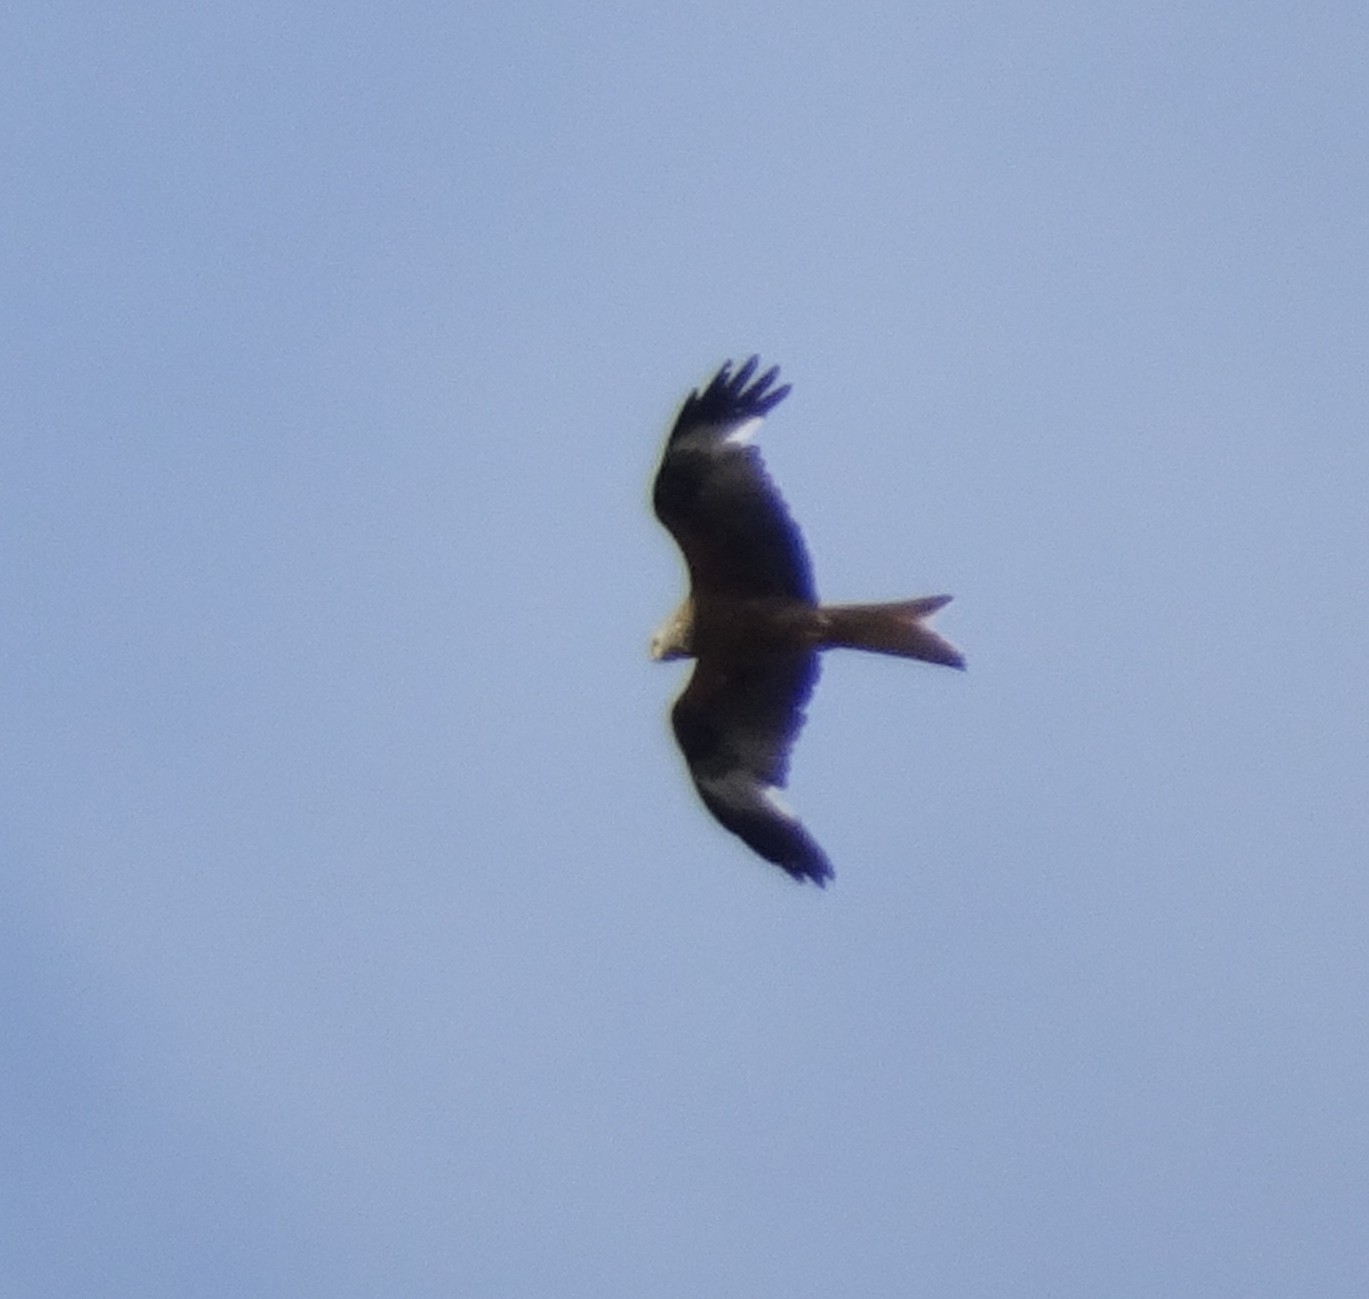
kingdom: Animalia
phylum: Chordata
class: Aves
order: Accipitriformes
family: Accipitridae
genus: Milvus
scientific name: Milvus milvus
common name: Red kite
